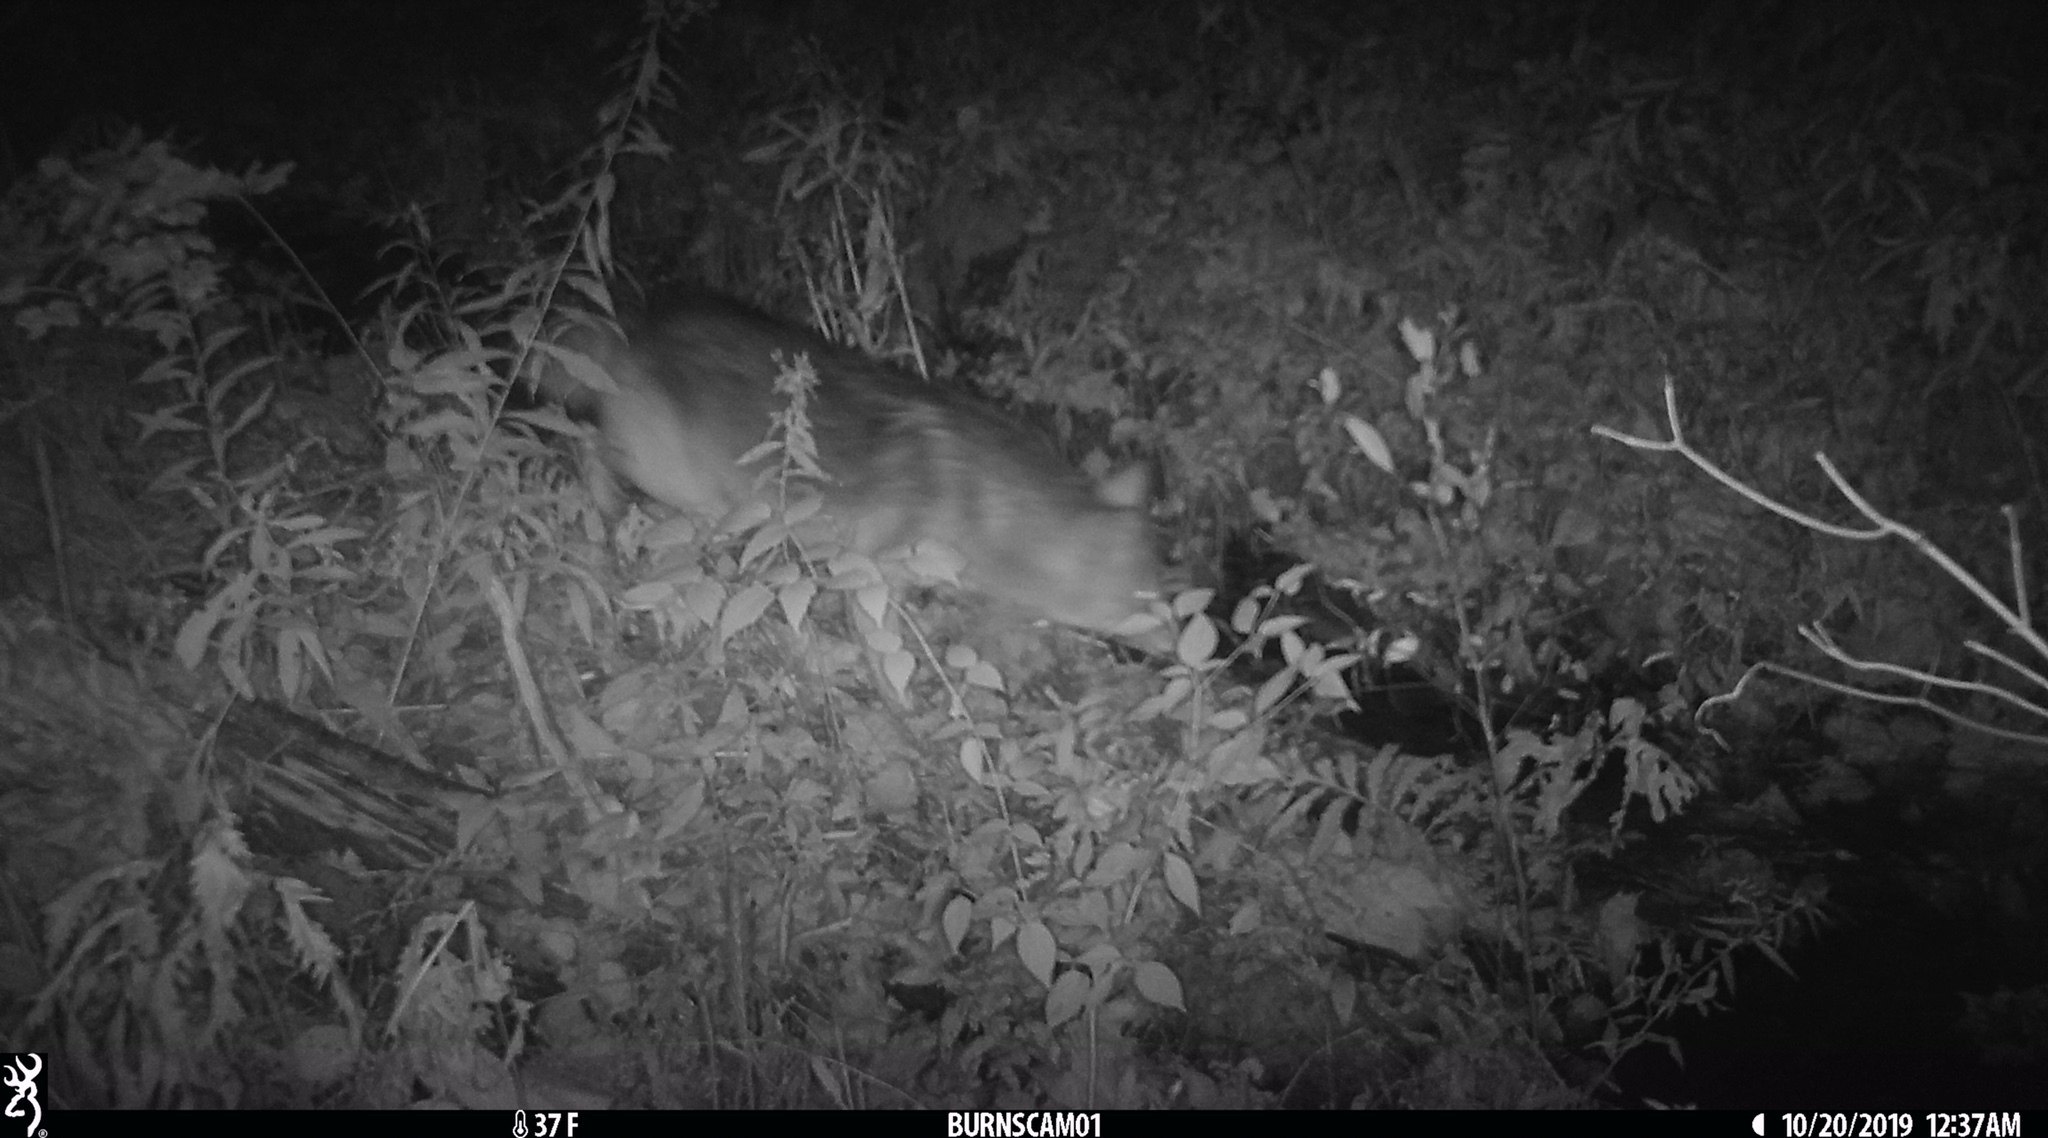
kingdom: Animalia
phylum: Chordata
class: Mammalia
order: Carnivora
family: Canidae
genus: Canis
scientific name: Canis latrans
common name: Coyote
